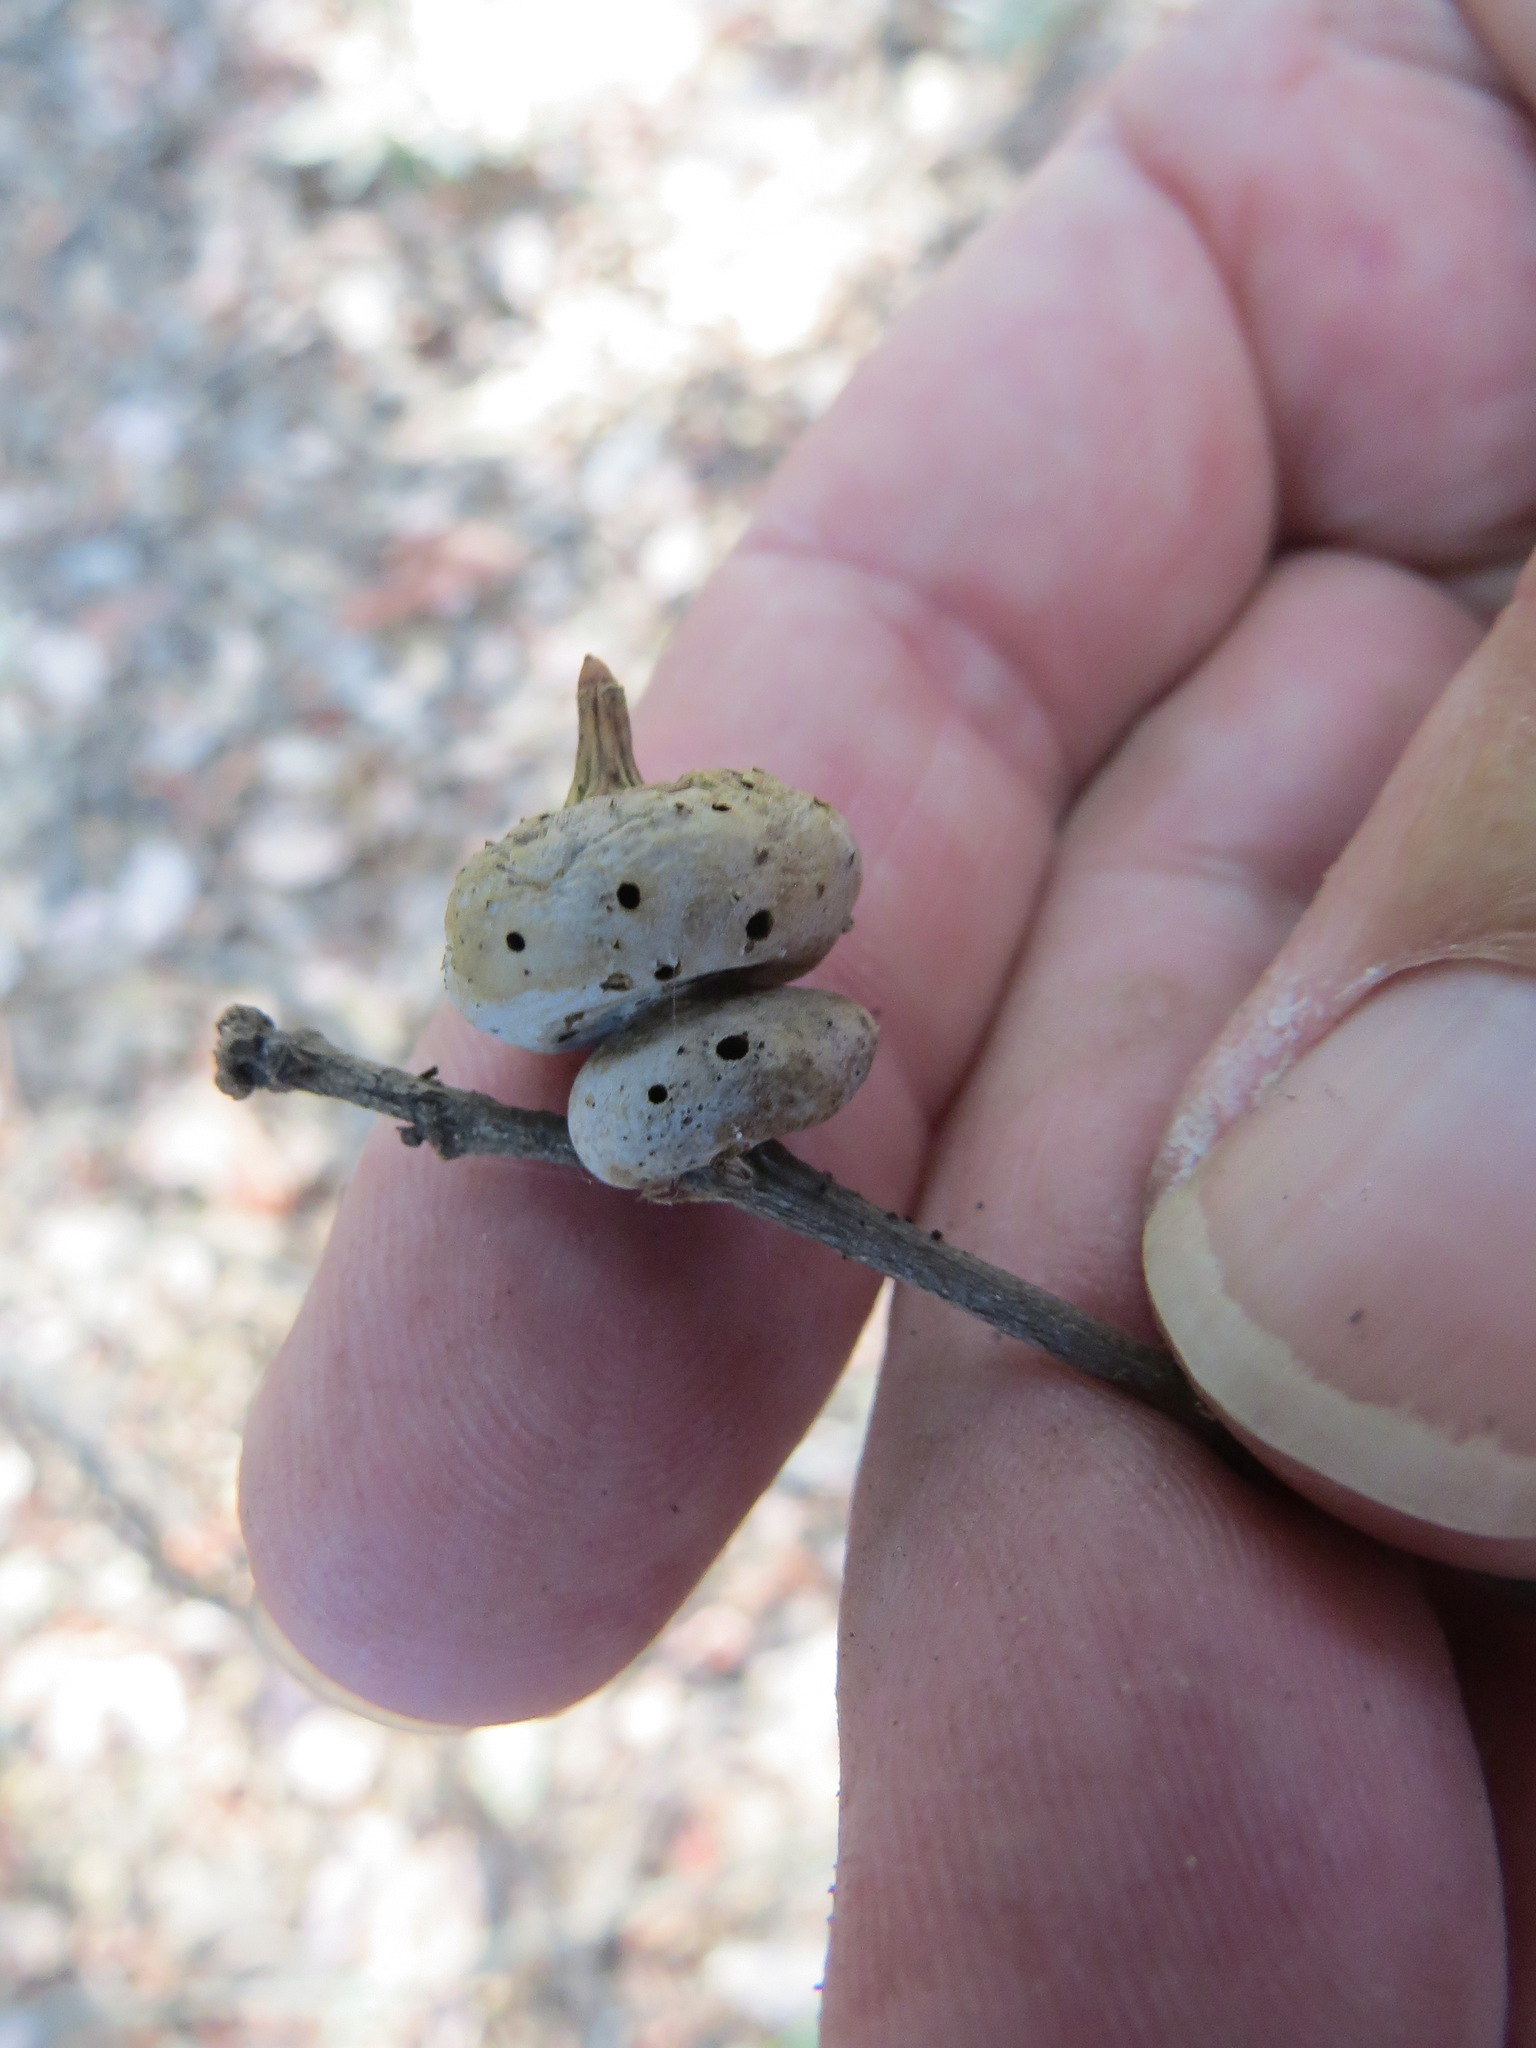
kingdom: Animalia
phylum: Arthropoda
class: Insecta
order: Hymenoptera
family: Cynipidae
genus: Heteroecus
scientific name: Heteroecus
